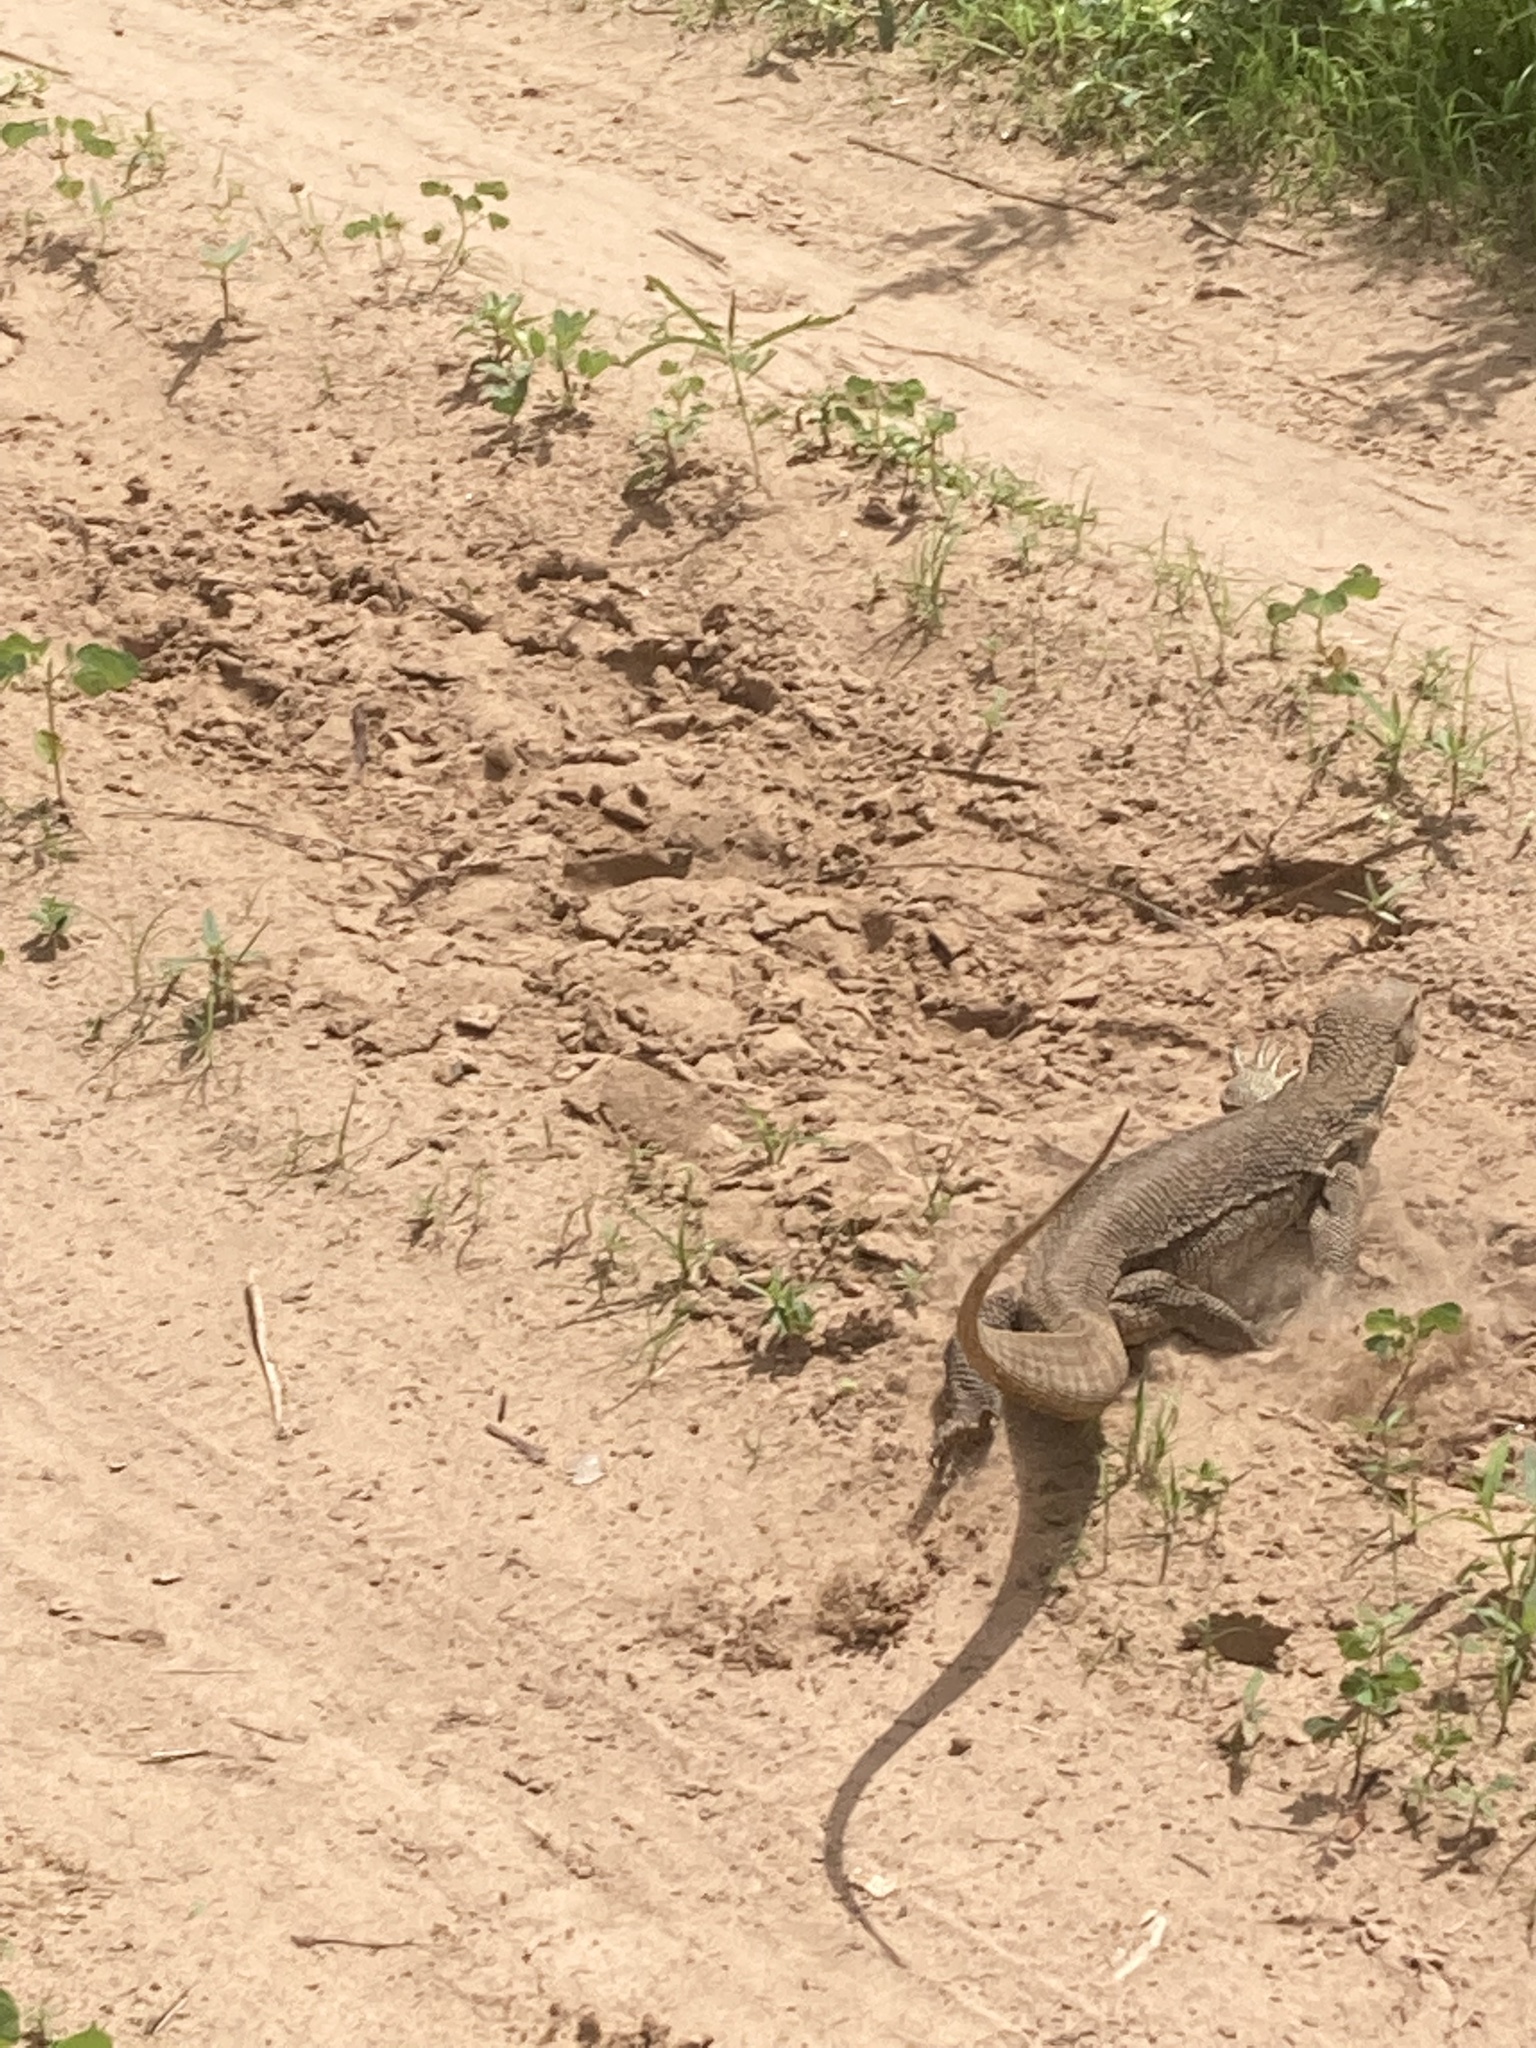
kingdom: Animalia
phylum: Chordata
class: Squamata
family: Varanidae
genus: Varanus
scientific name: Varanus exanthematicus
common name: Savannah monitor
